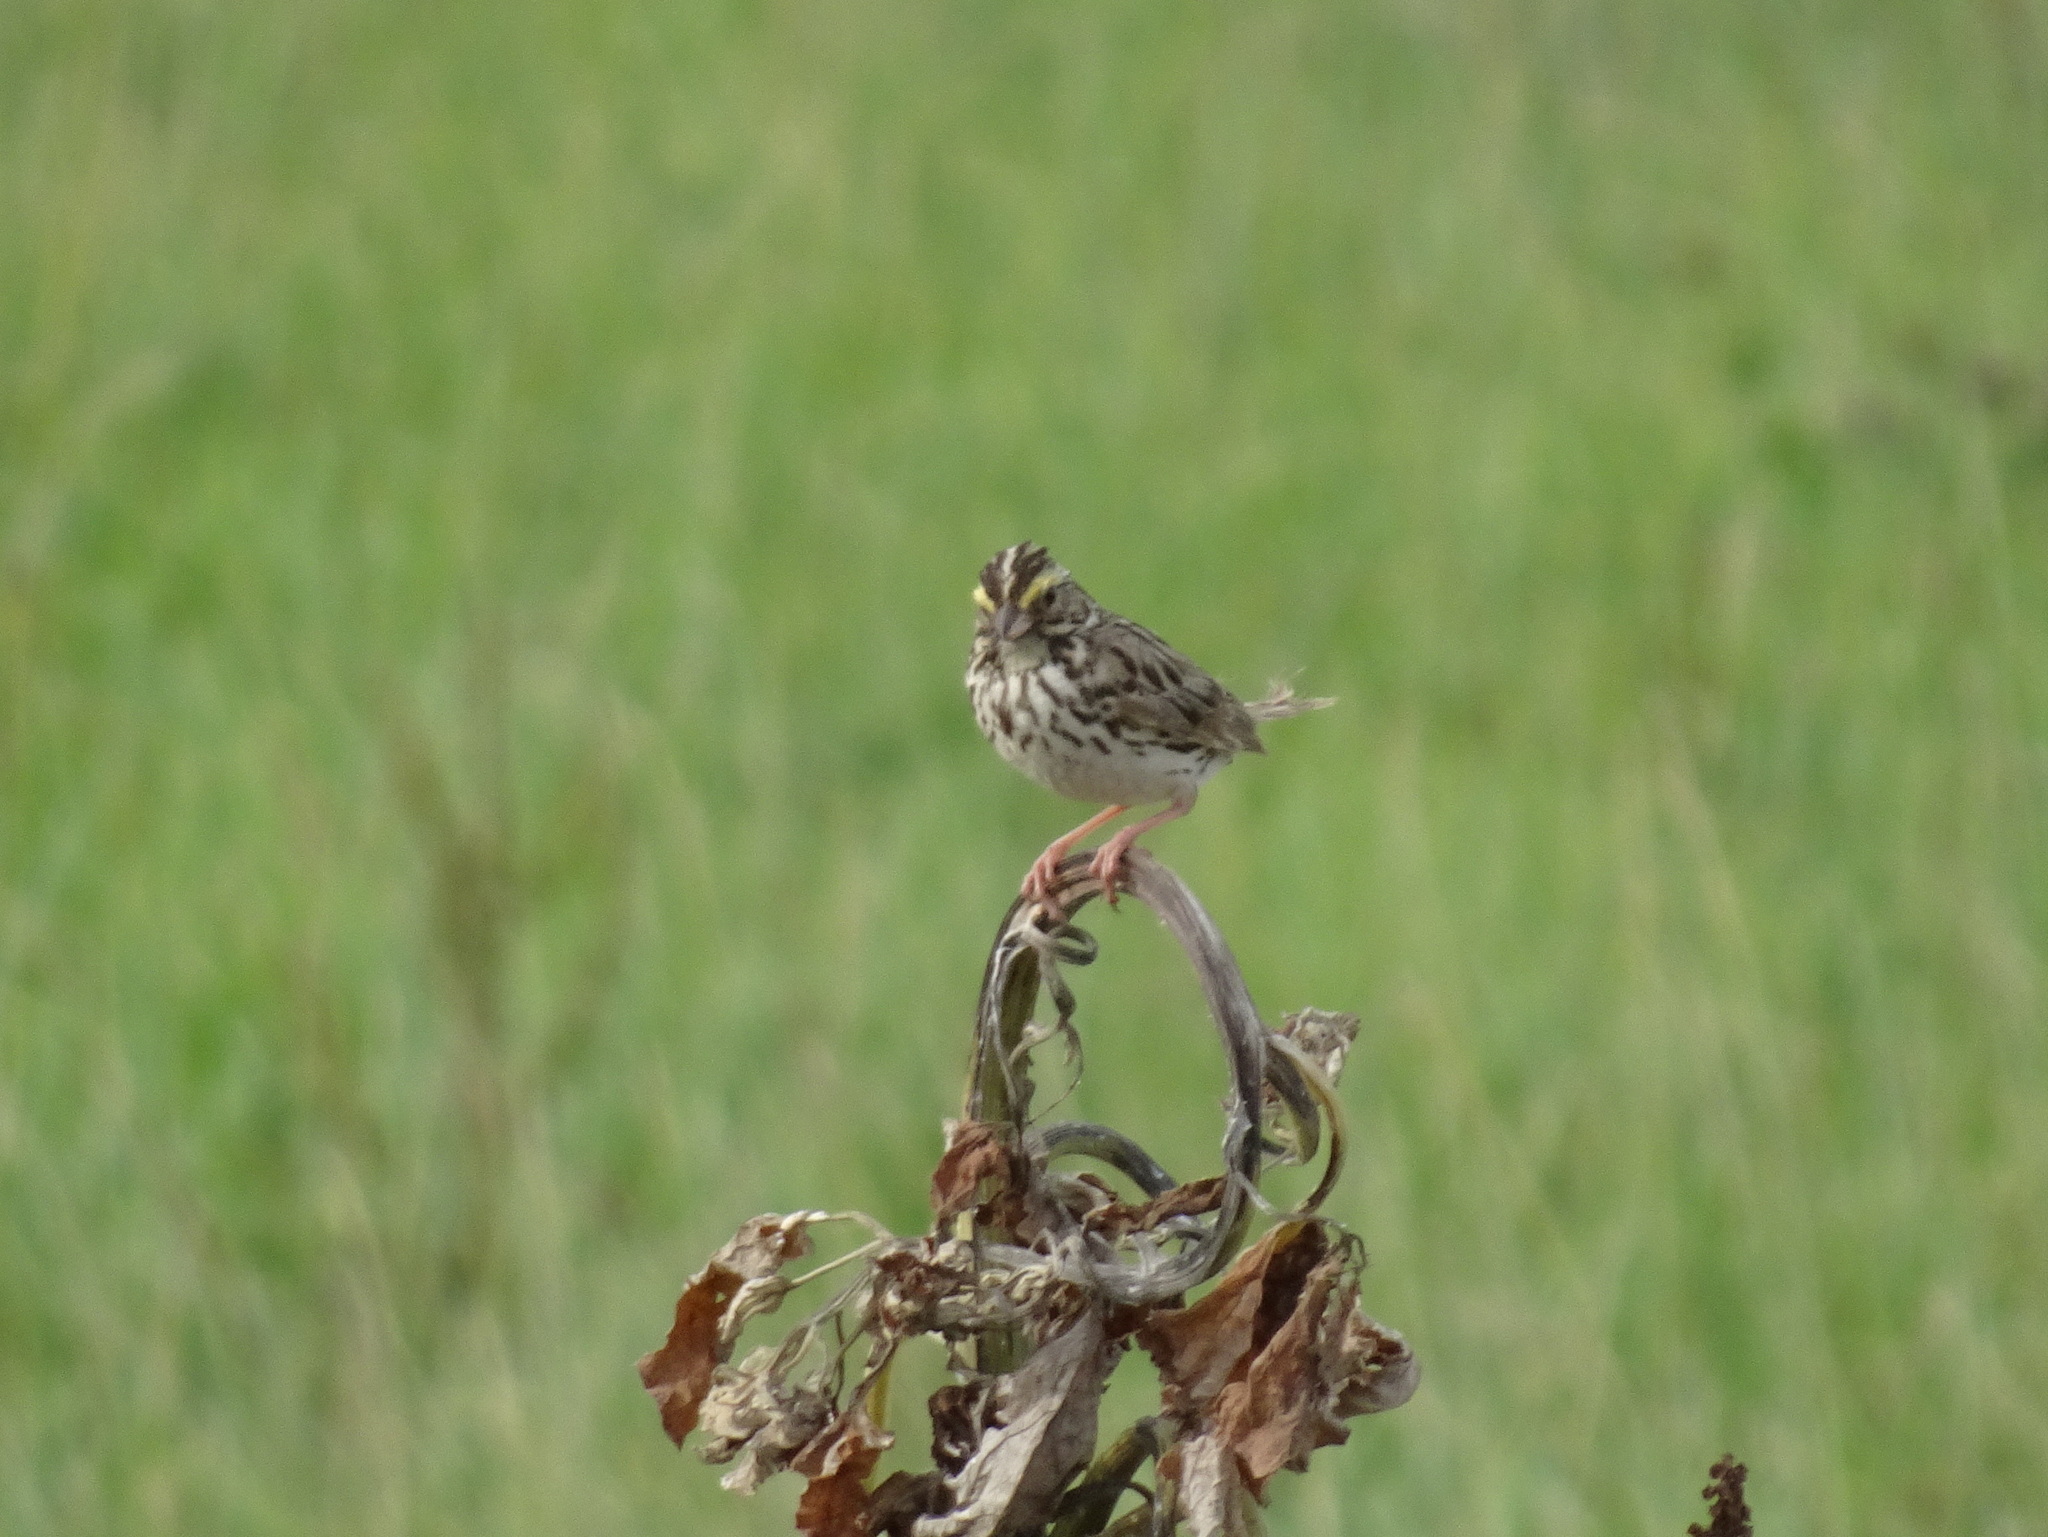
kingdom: Animalia
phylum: Chordata
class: Aves
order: Passeriformes
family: Passerellidae
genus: Passerculus
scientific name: Passerculus sandwichensis
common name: Savannah sparrow
